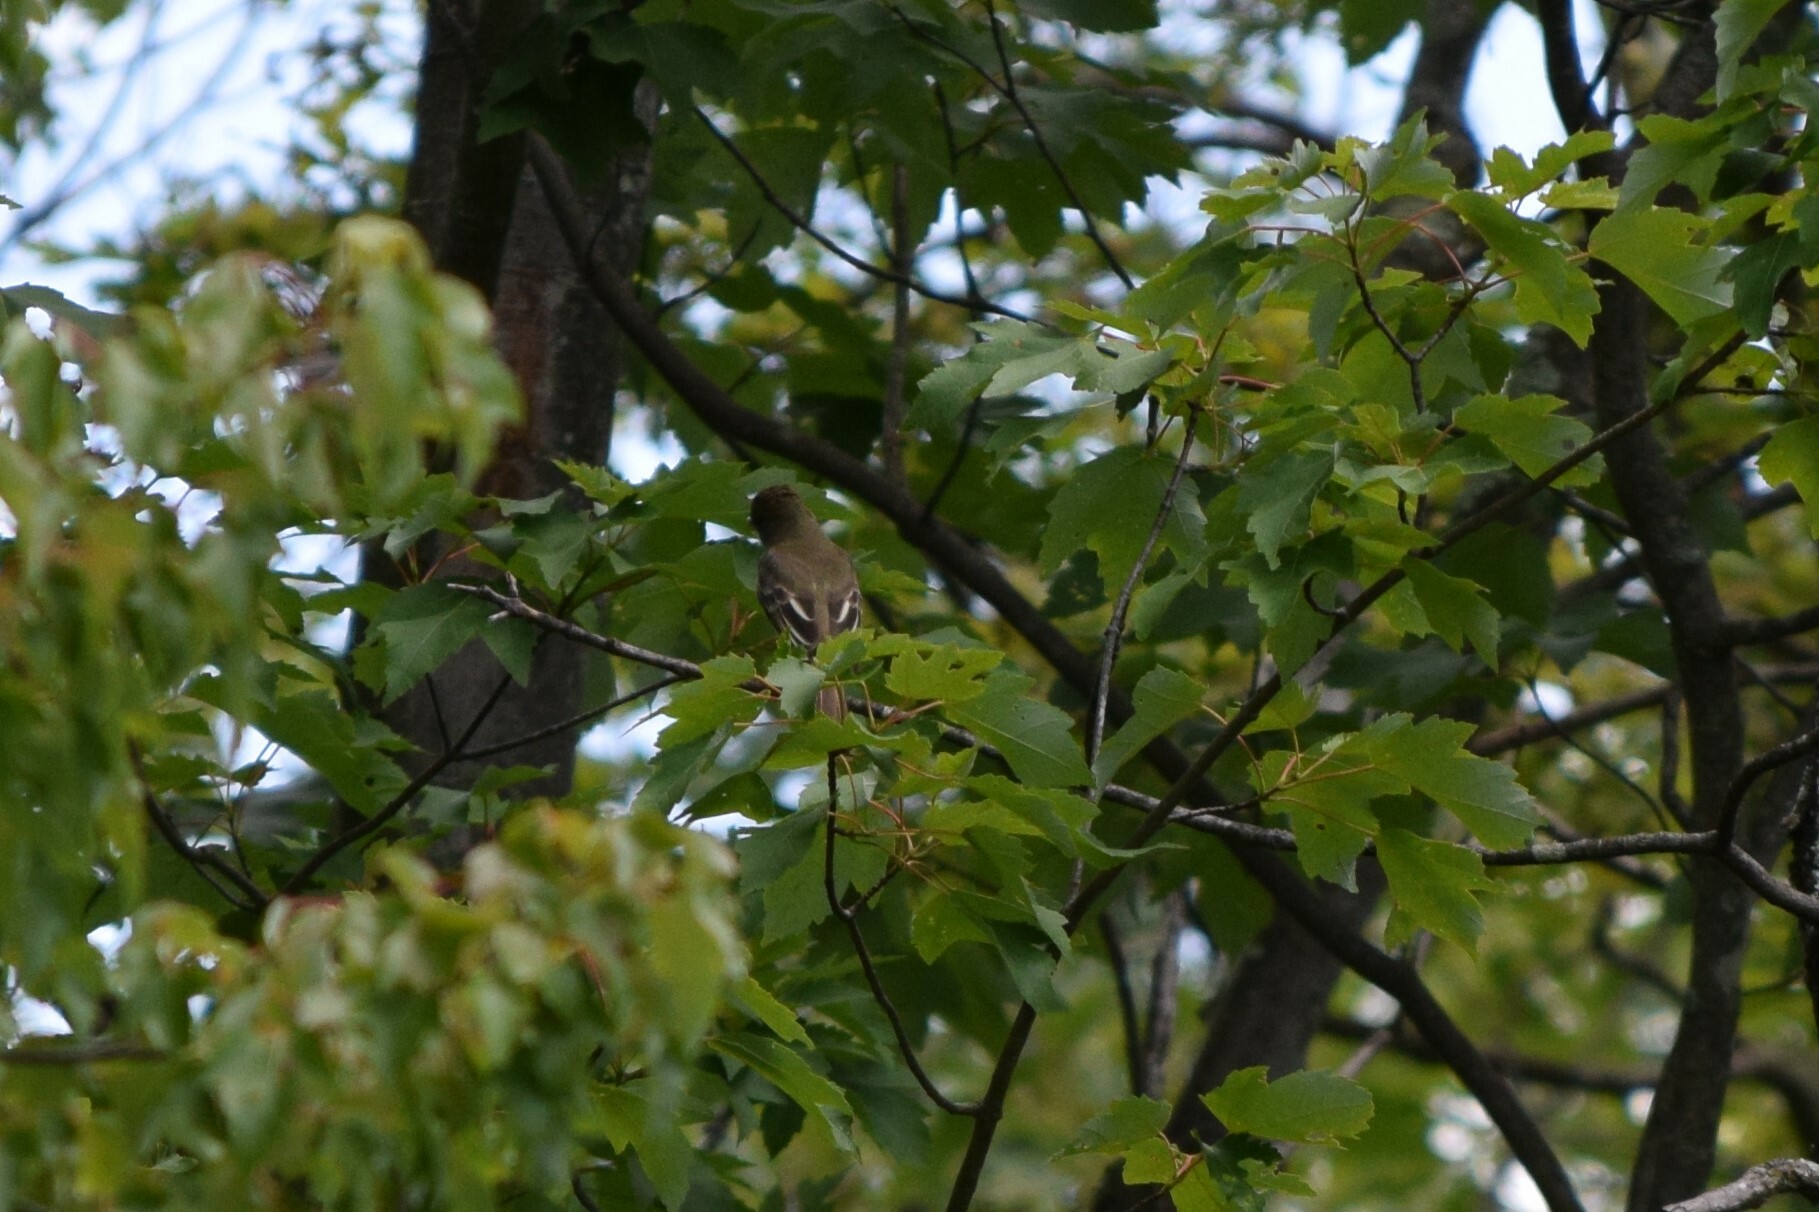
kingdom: Animalia
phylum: Chordata
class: Aves
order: Passeriformes
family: Tyrannidae
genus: Myiarchus
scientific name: Myiarchus crinitus
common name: Great crested flycatcher
